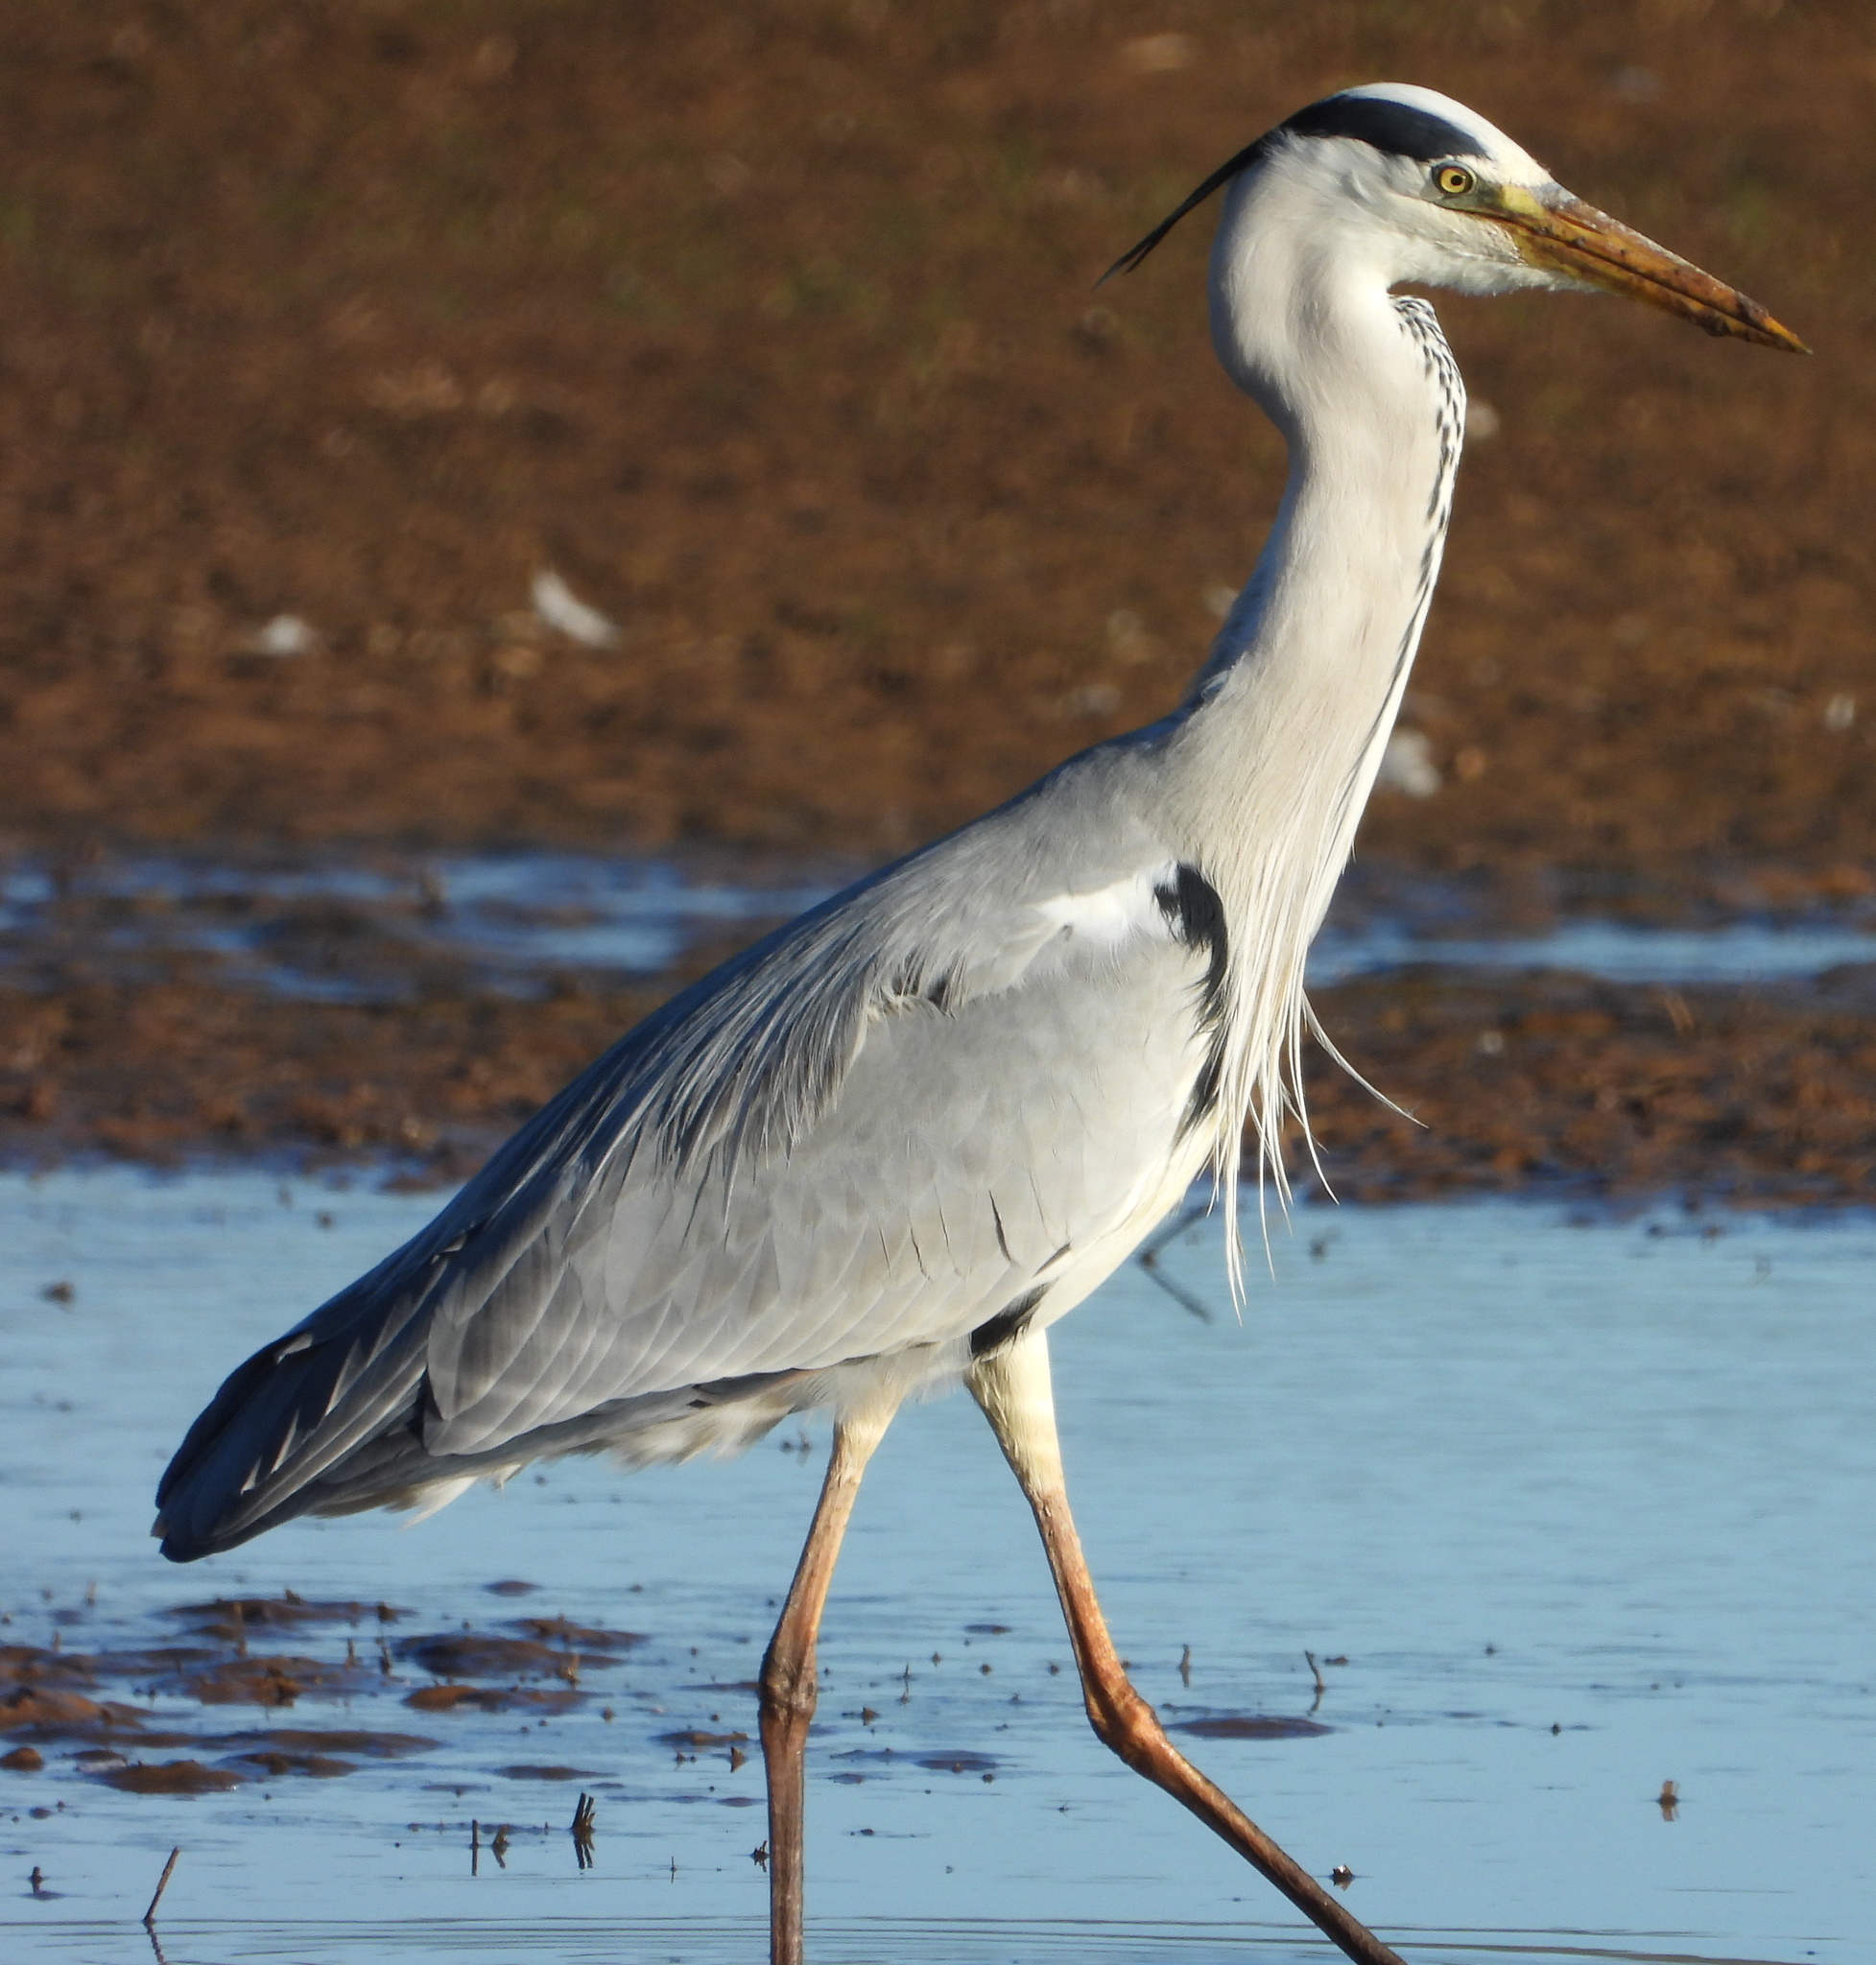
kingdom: Animalia
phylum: Chordata
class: Aves
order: Pelecaniformes
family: Ardeidae
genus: Ardea
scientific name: Ardea cinerea
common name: Grey heron
